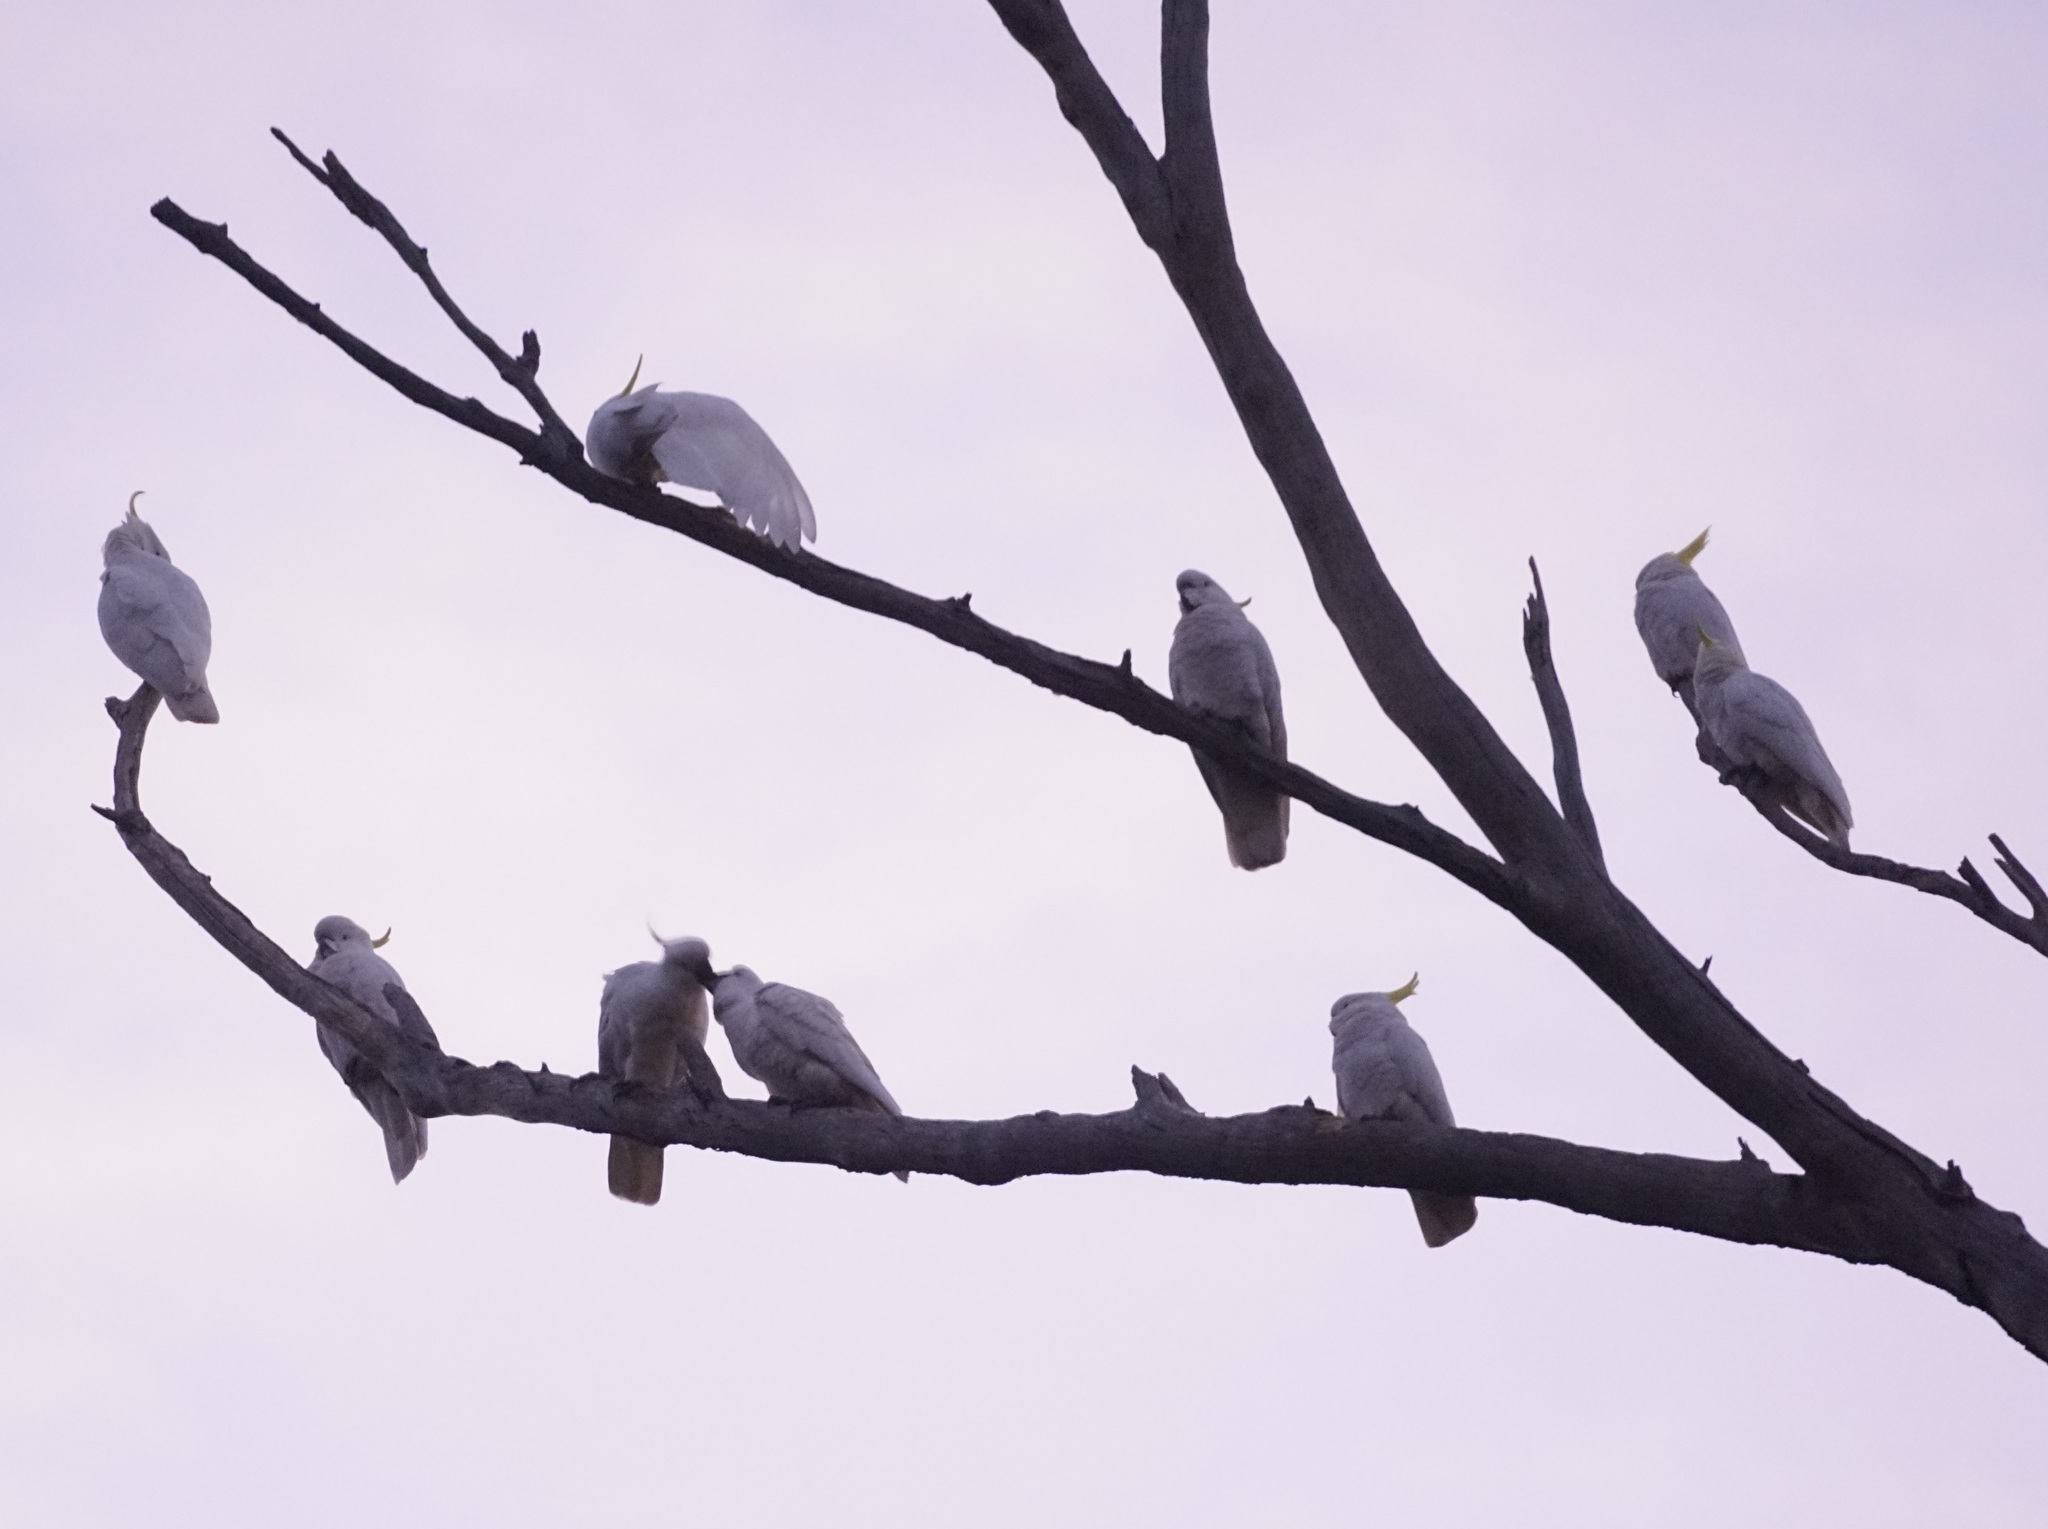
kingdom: Animalia
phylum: Chordata
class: Aves
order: Psittaciformes
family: Psittacidae
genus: Cacatua
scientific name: Cacatua galerita
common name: Sulphur-crested cockatoo
